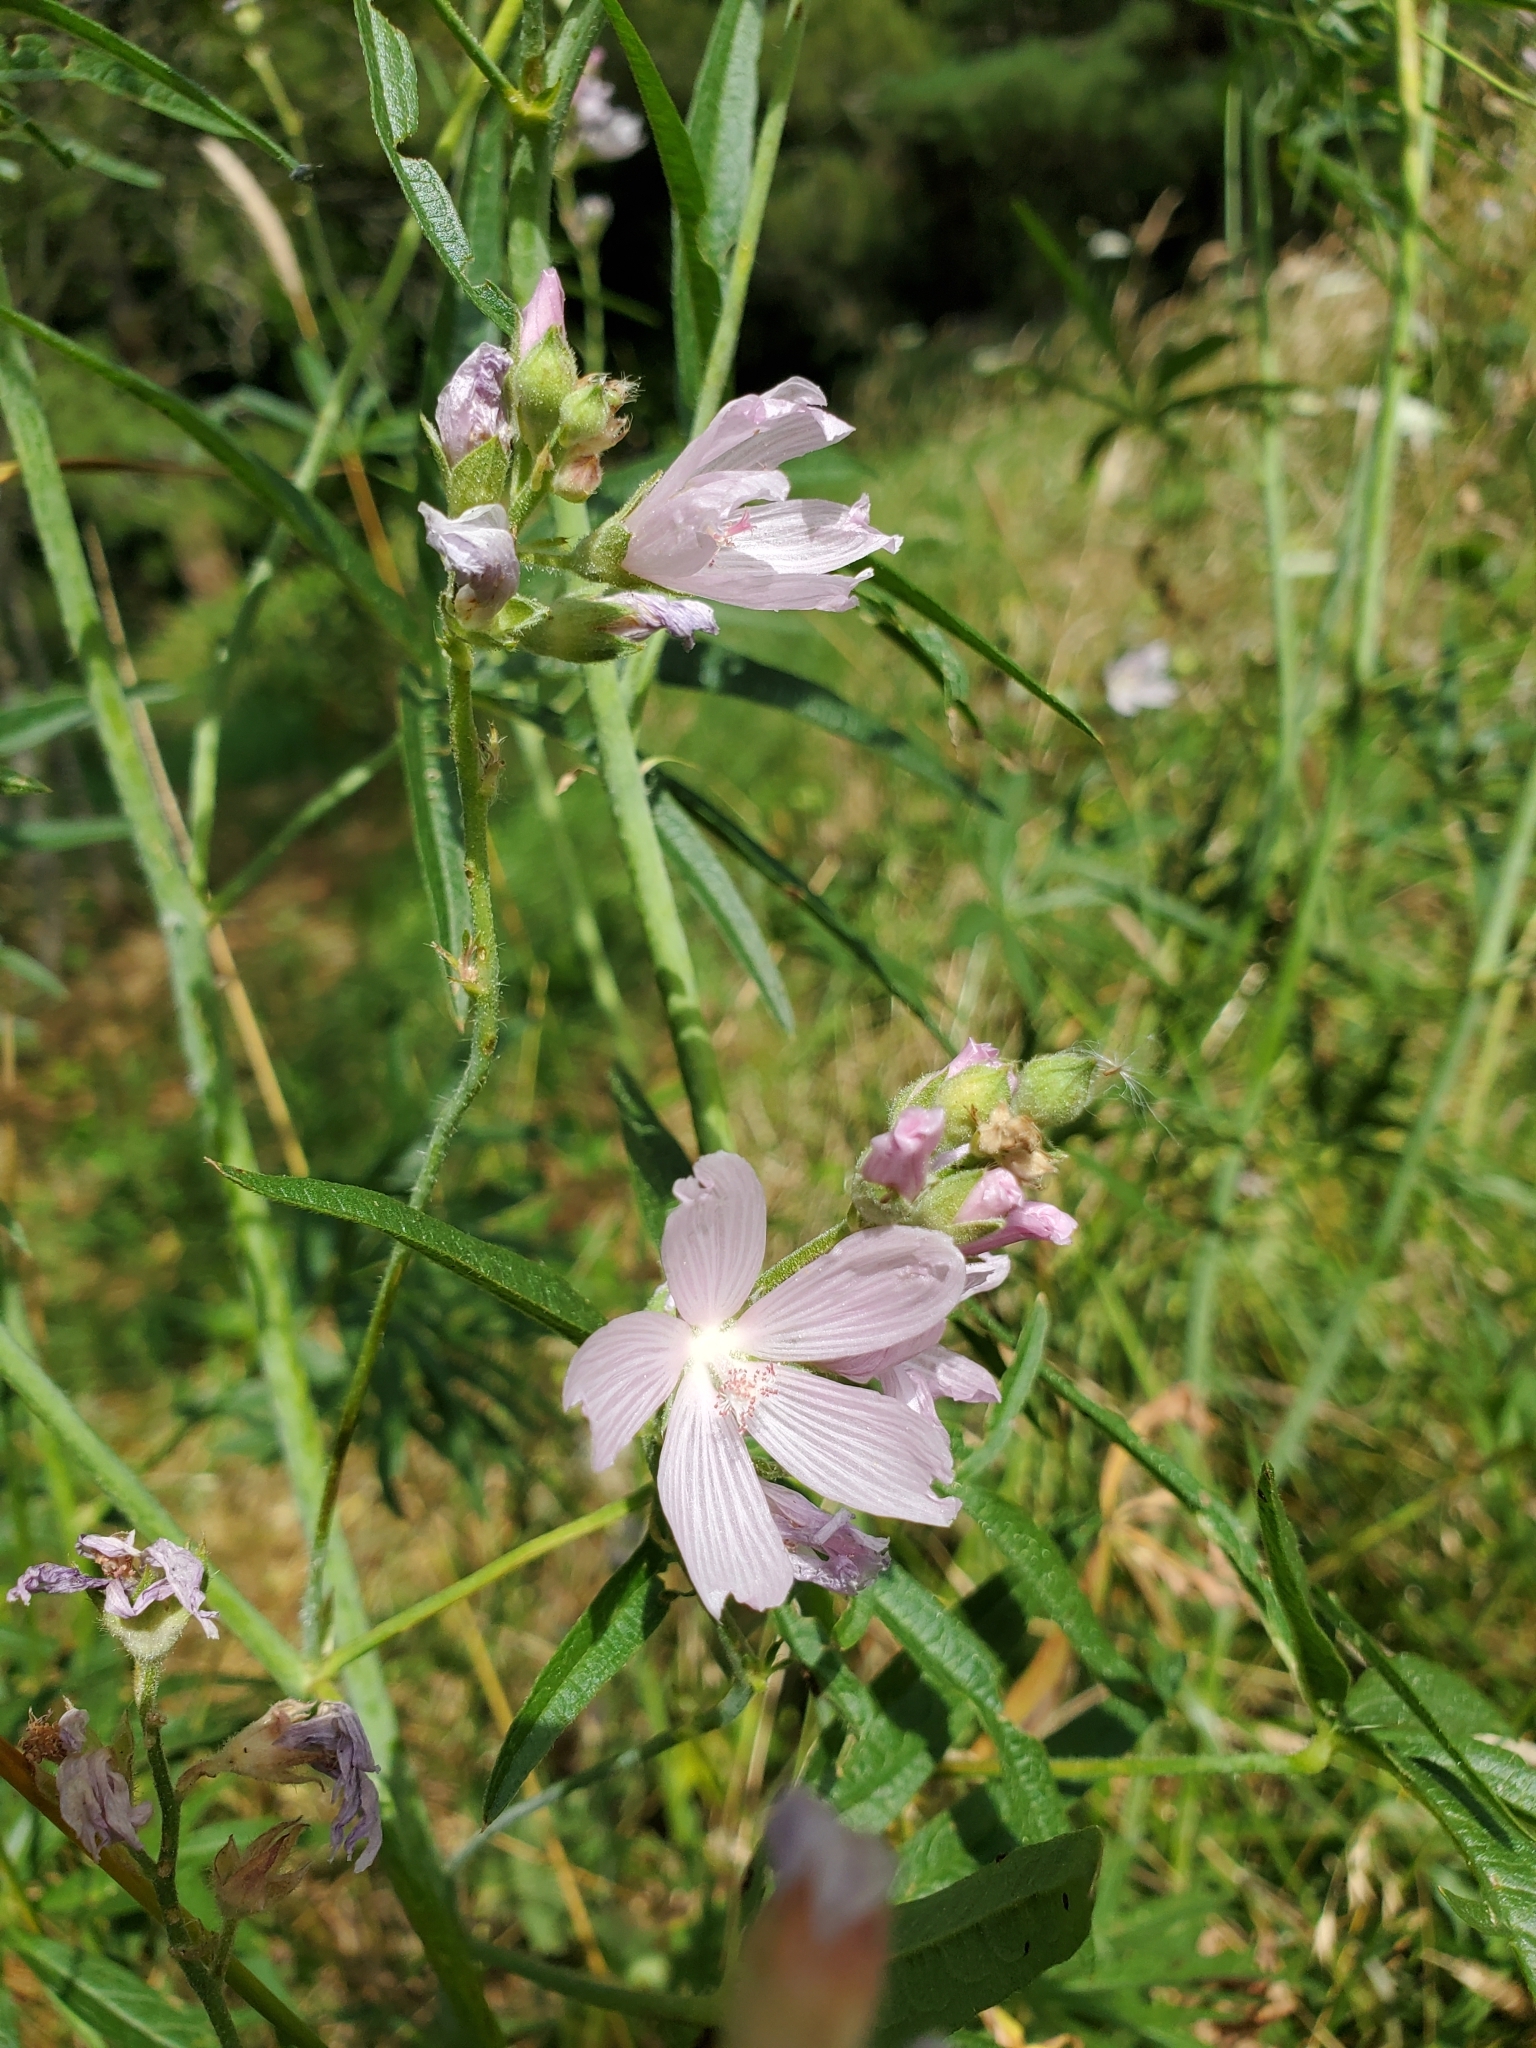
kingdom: Plantae
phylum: Tracheophyta
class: Magnoliopsida
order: Malvales
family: Malvaceae
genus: Sidalcea
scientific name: Sidalcea campestris
